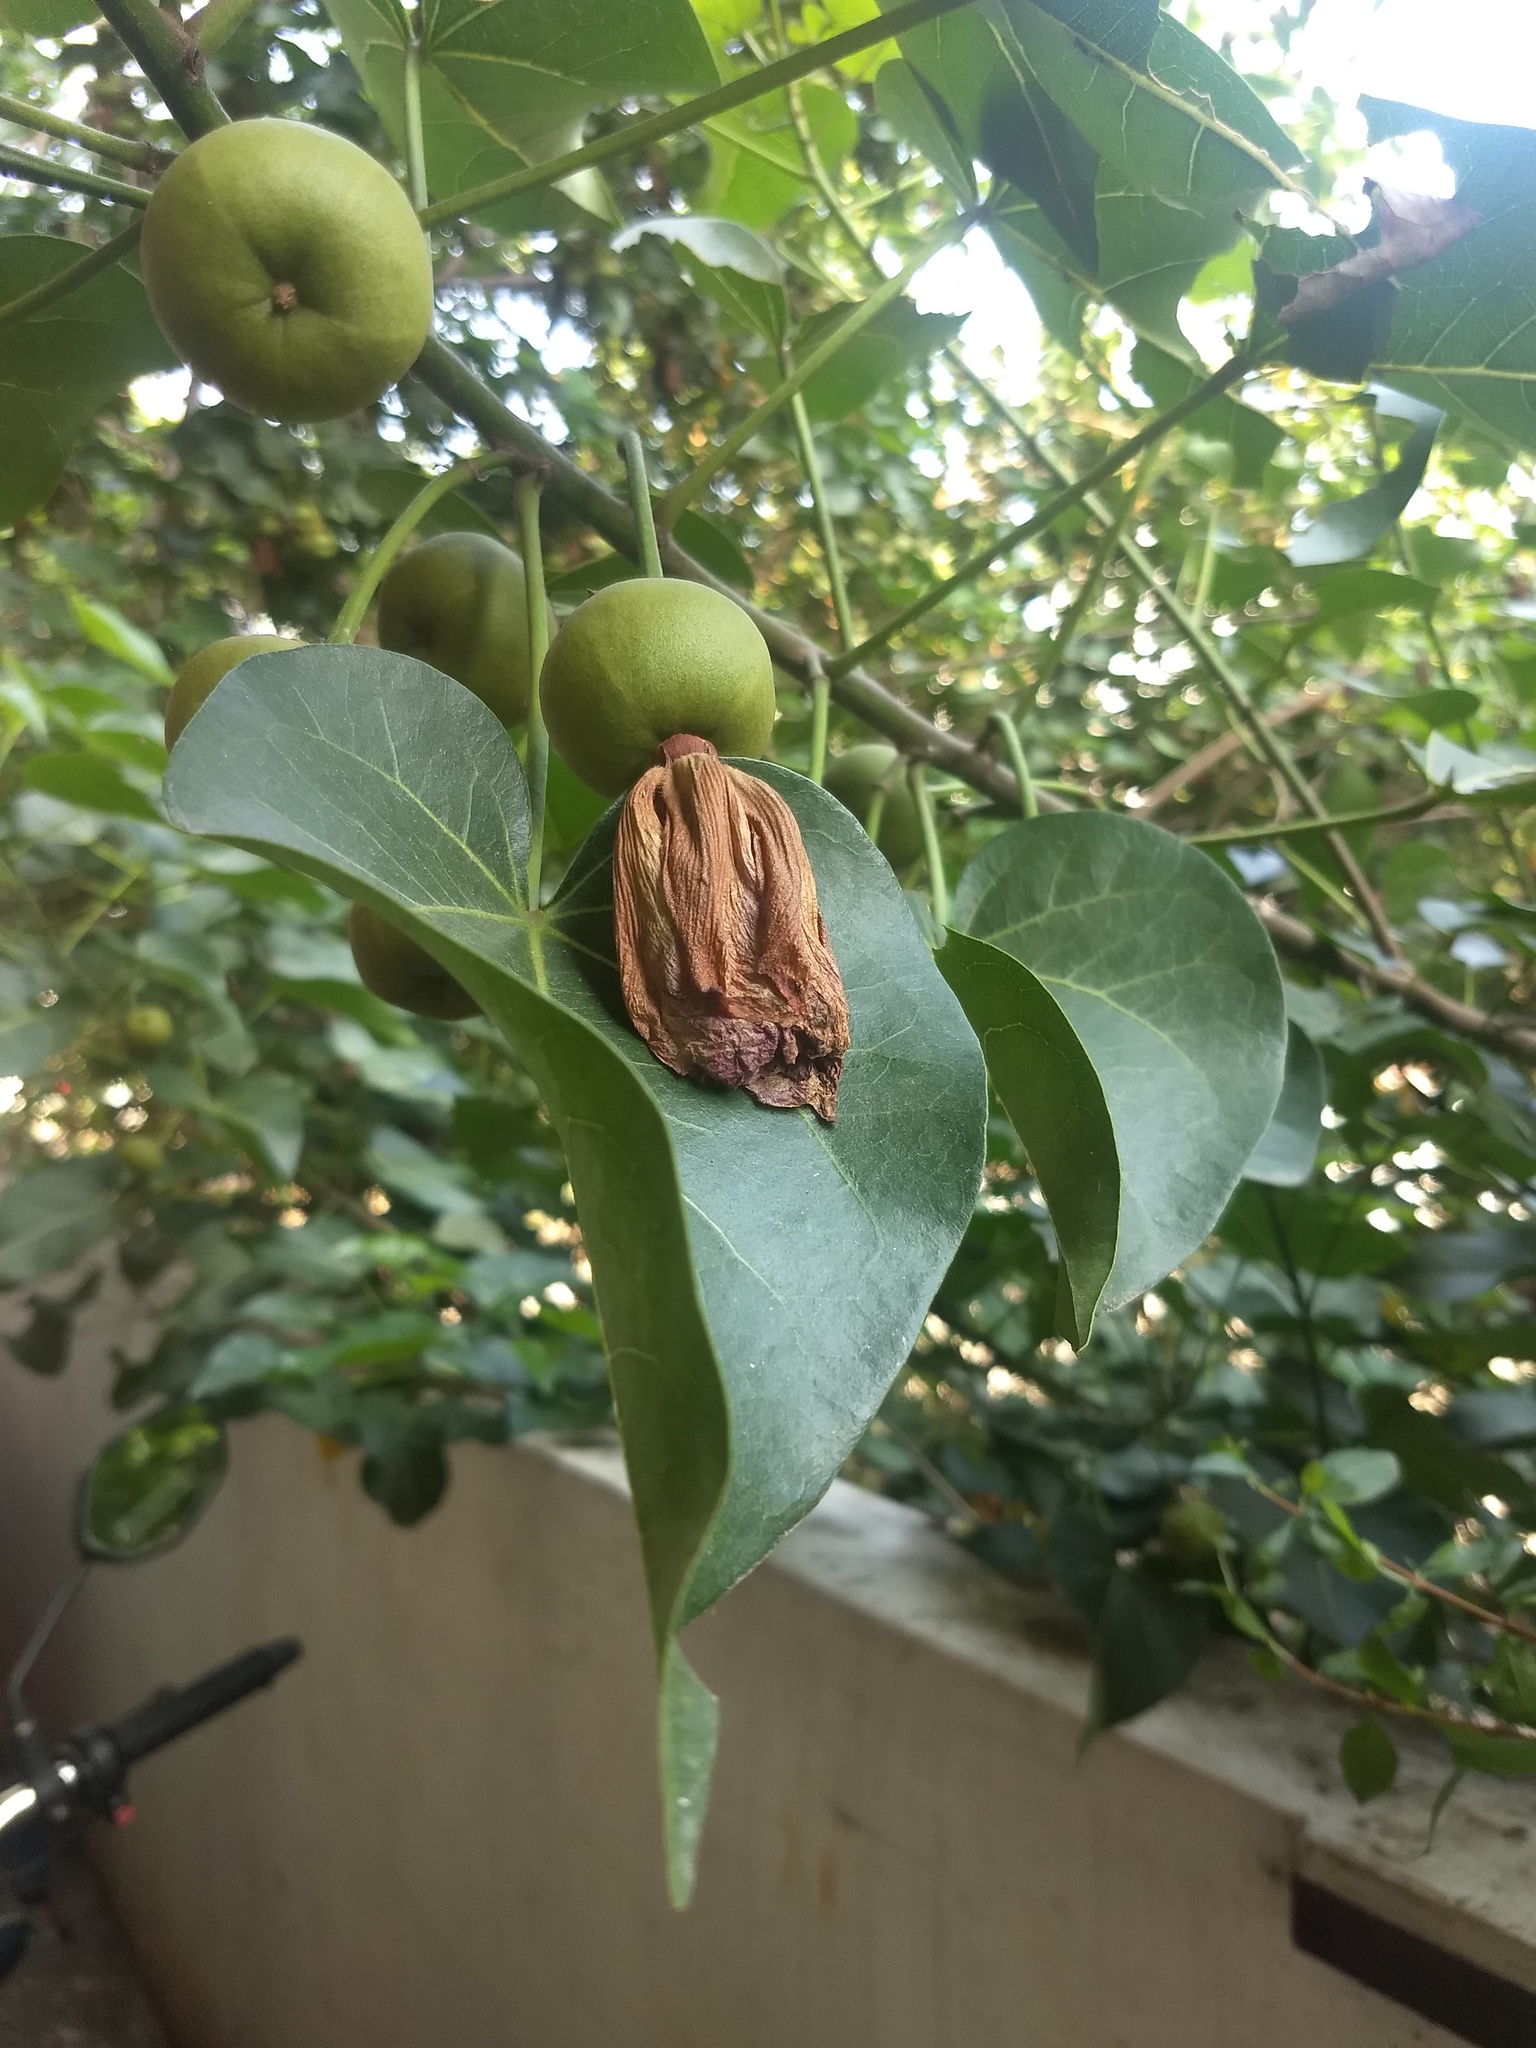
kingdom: Plantae
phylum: Tracheophyta
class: Magnoliopsida
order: Malvales
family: Malvaceae
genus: Thespesia
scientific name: Thespesia populnea
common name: Seaside mahoe
